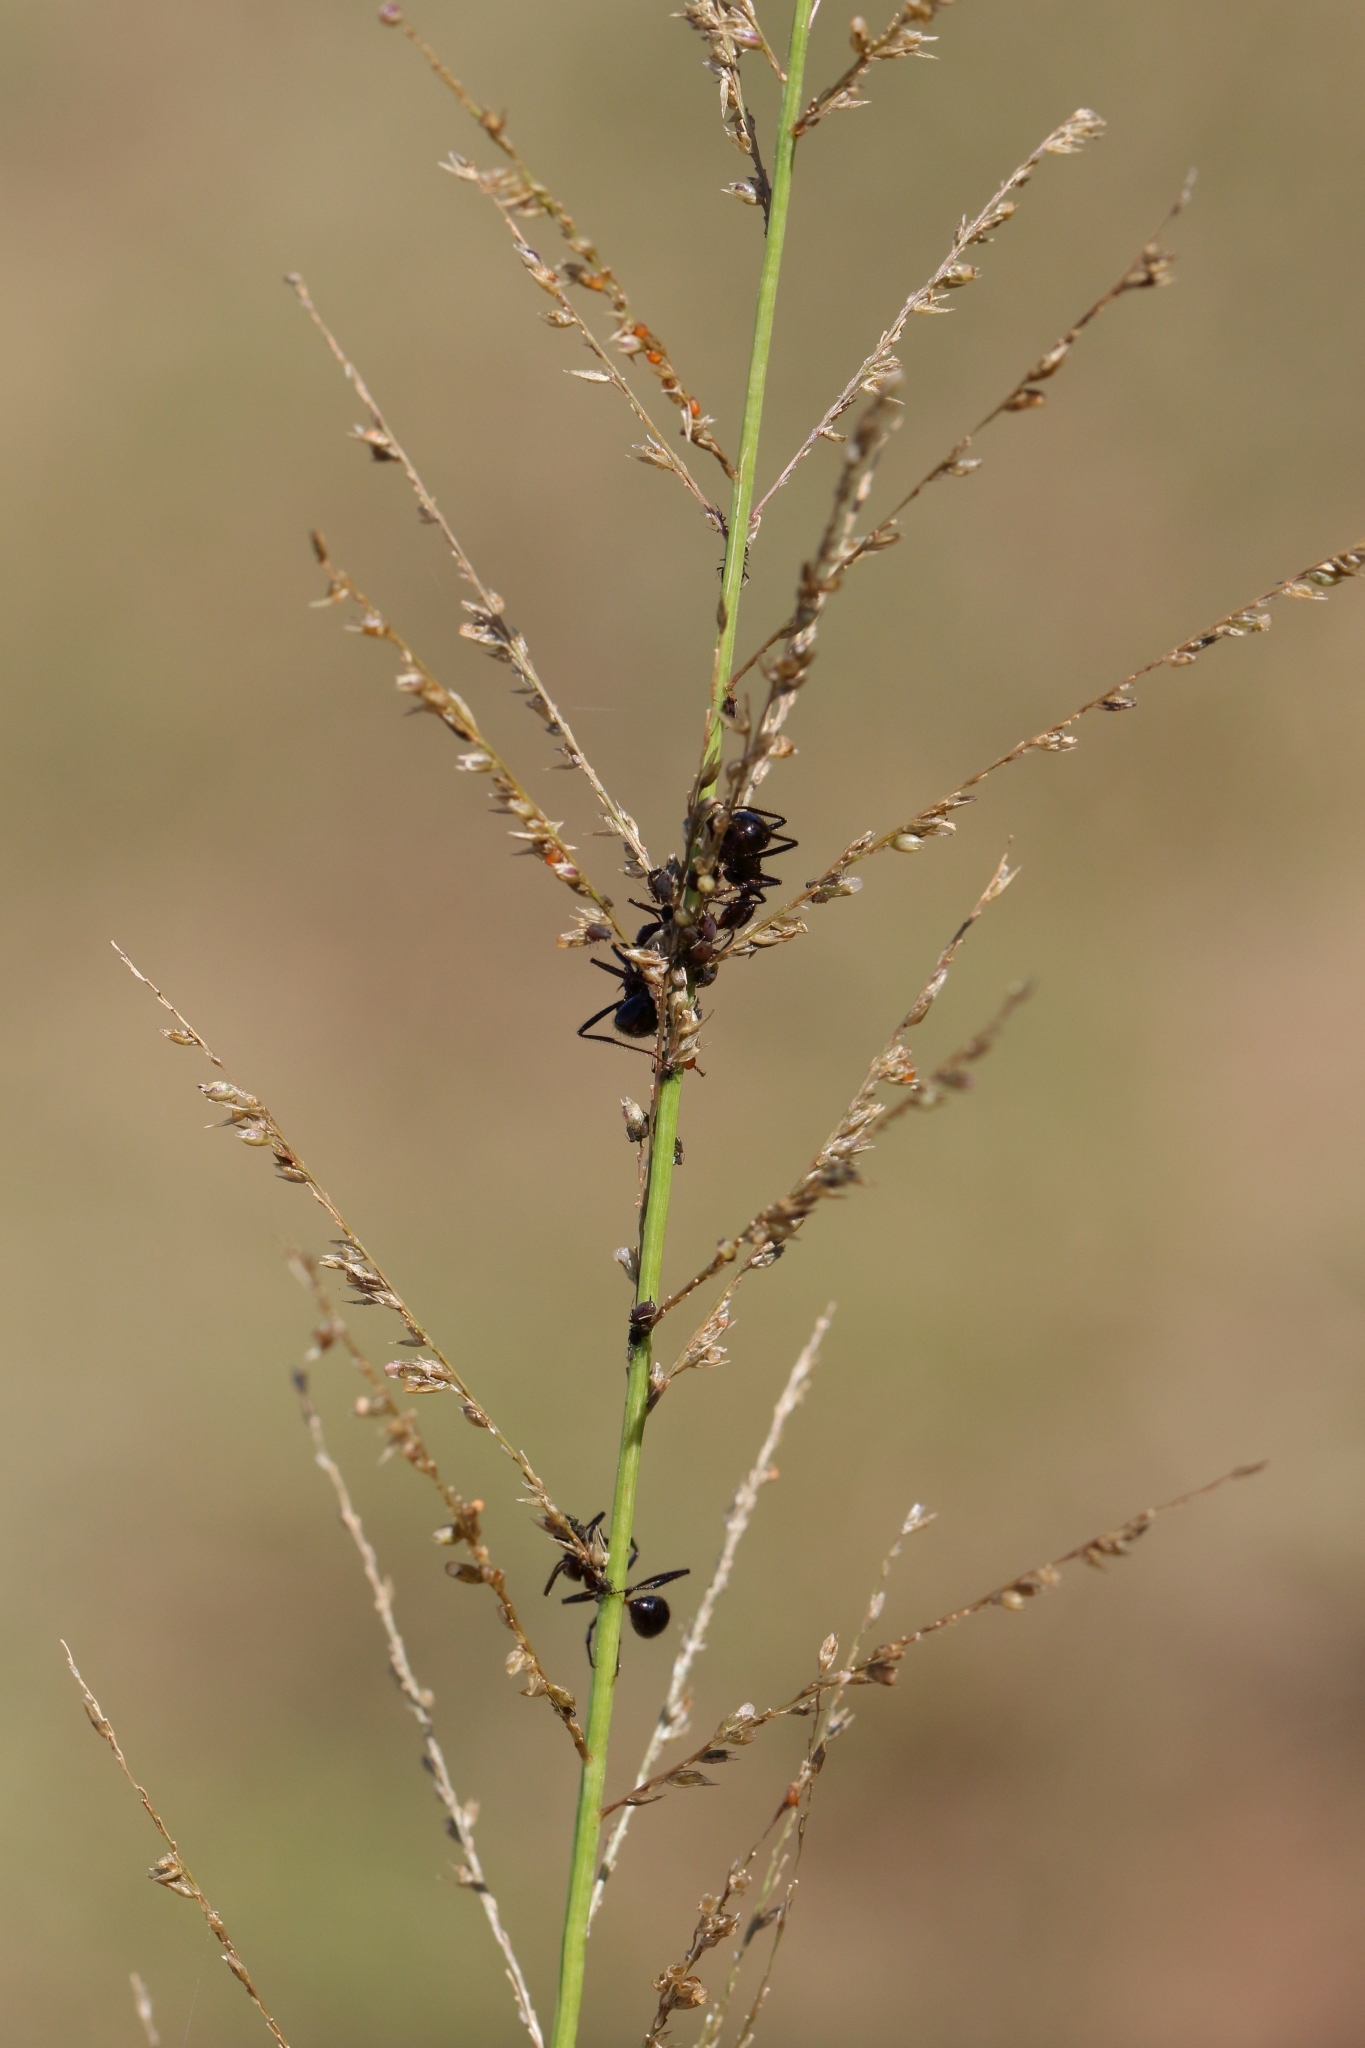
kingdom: Plantae
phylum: Tracheophyta
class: Liliopsida
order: Poales
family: Poaceae
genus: Sporobolus
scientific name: Sporobolus pyramidalis
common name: West indian dropseed
